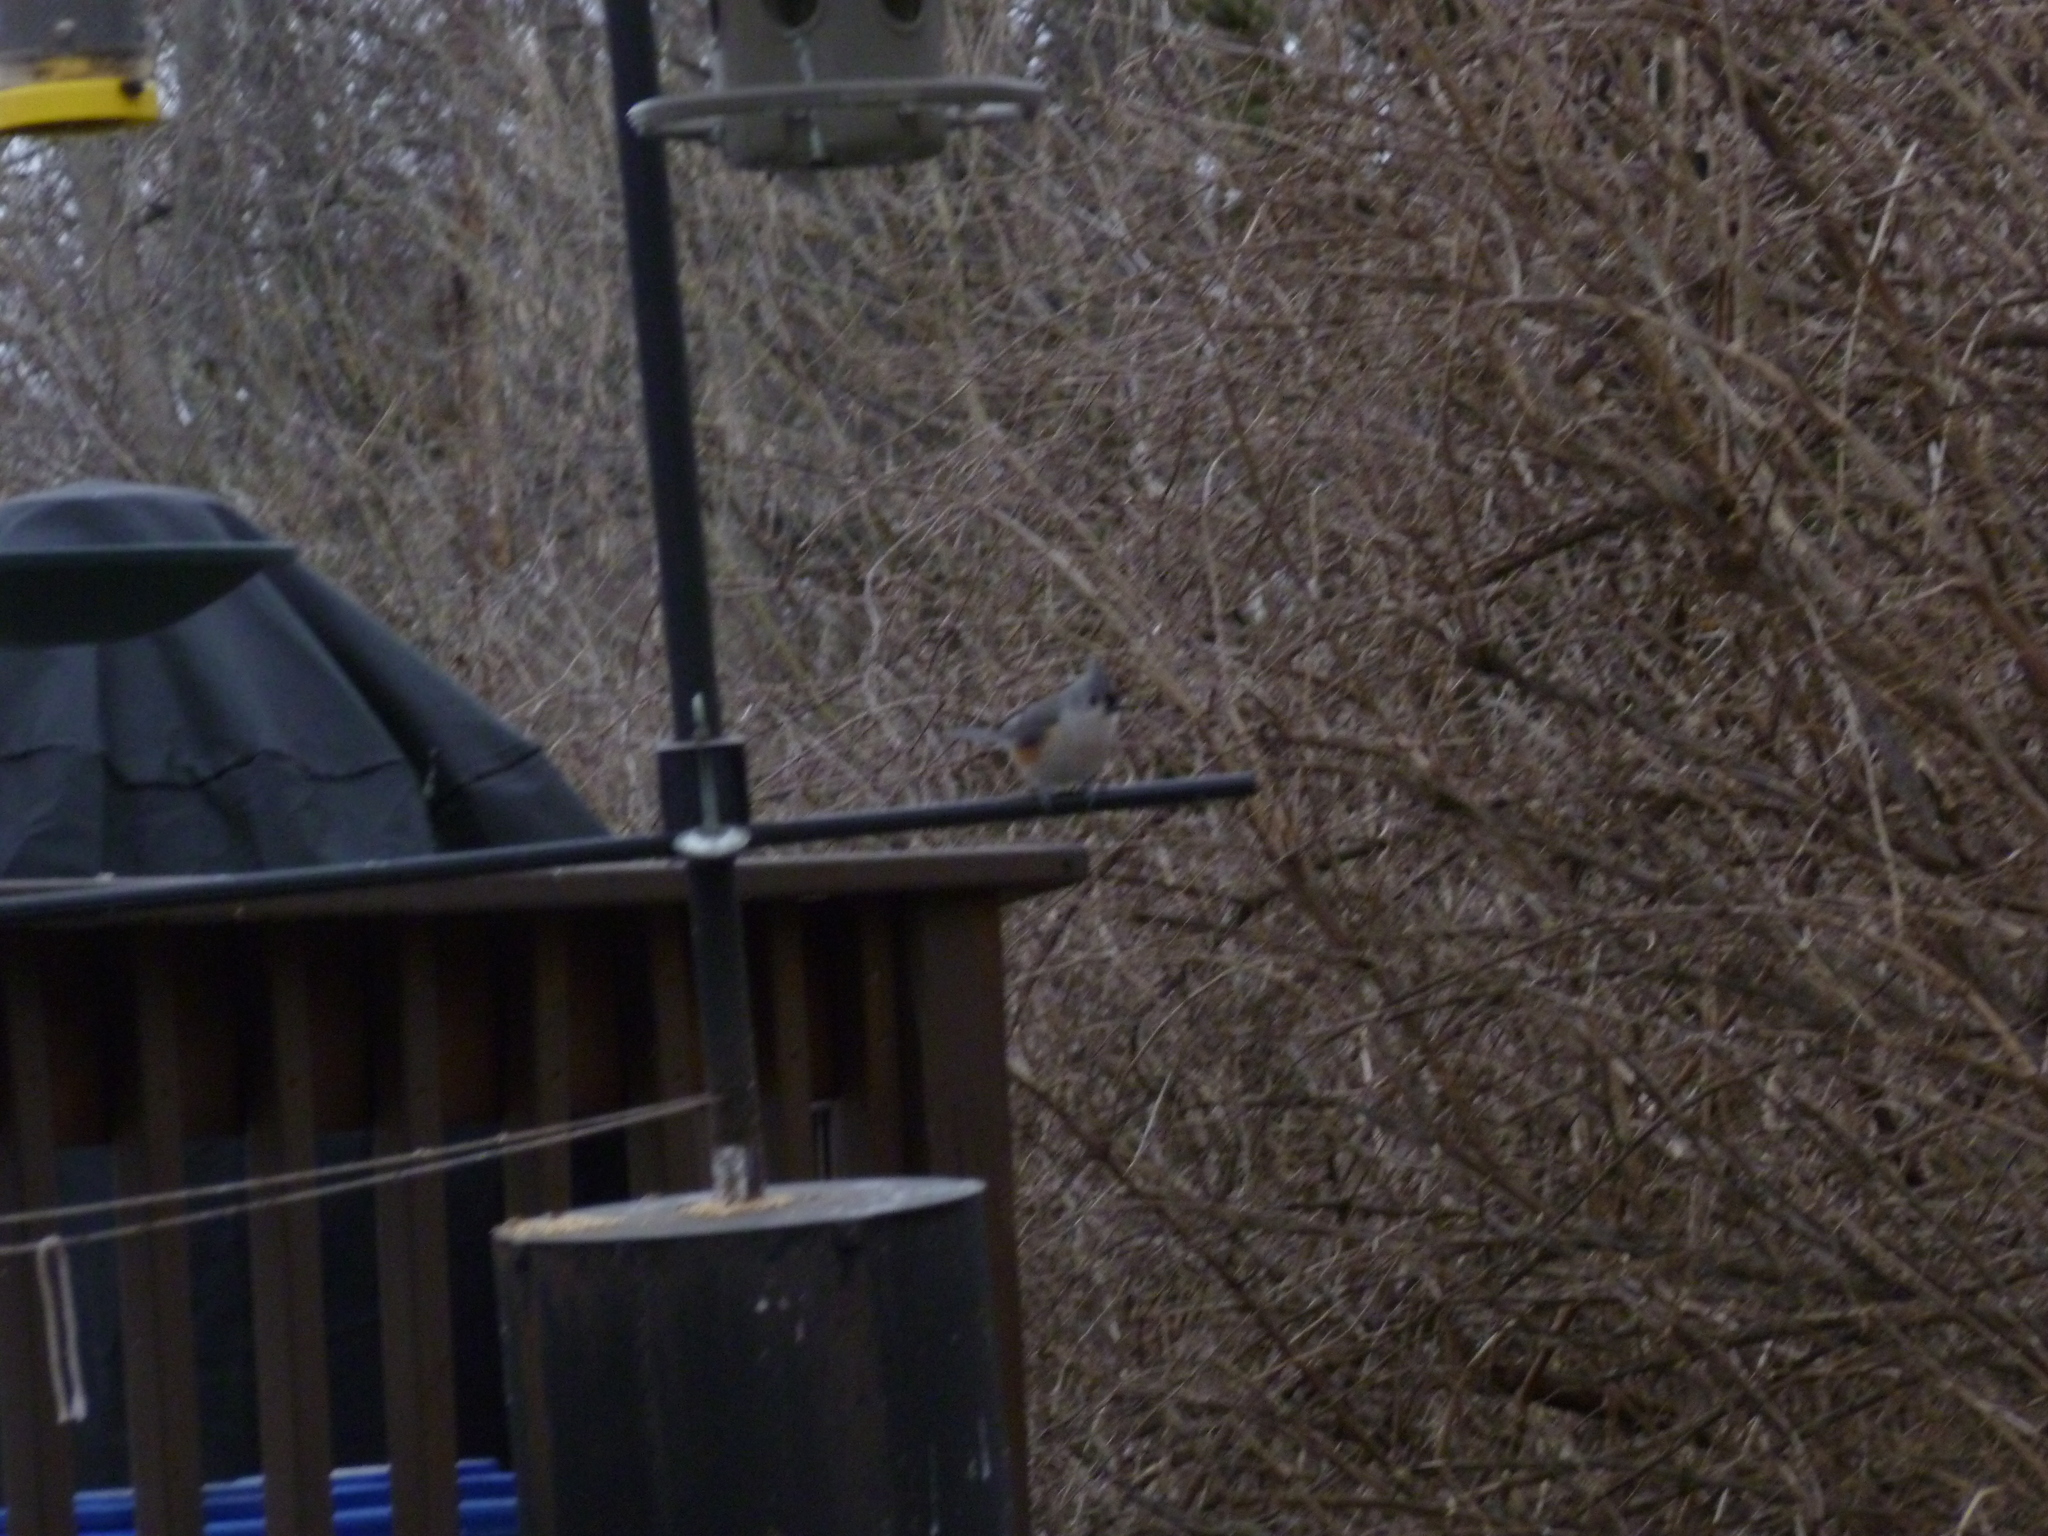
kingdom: Animalia
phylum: Chordata
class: Aves
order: Passeriformes
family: Paridae
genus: Baeolophus
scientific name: Baeolophus bicolor
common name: Tufted titmouse
